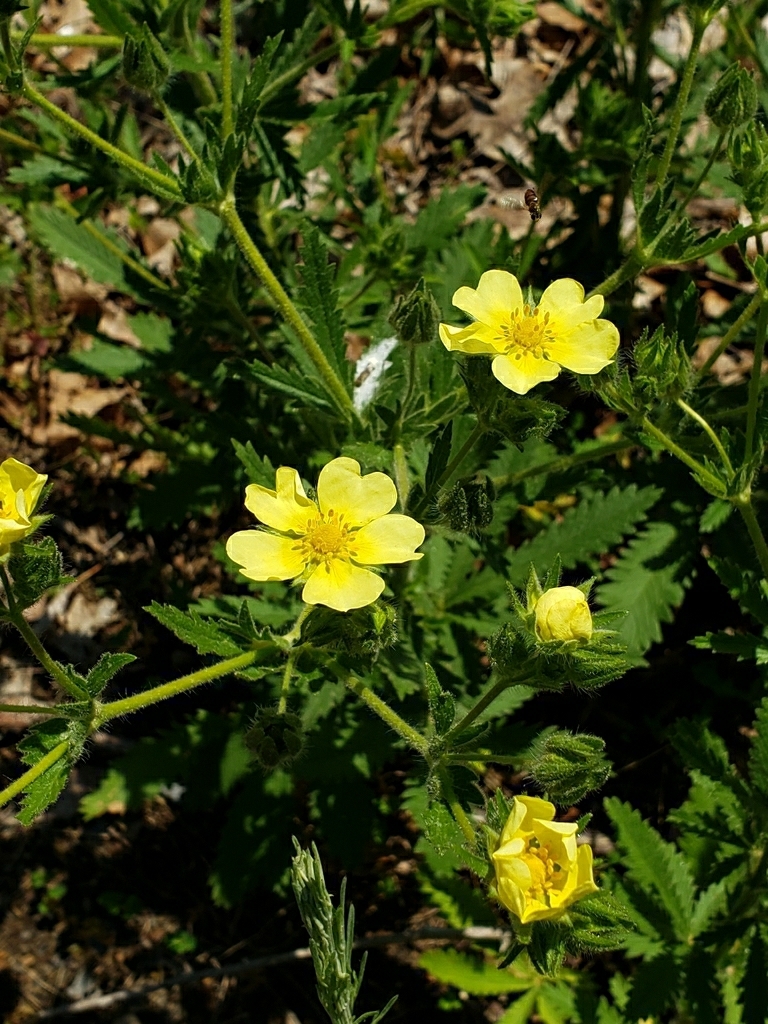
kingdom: Plantae
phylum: Tracheophyta
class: Magnoliopsida
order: Rosales
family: Rosaceae
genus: Potentilla
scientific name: Potentilla recta
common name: Sulphur cinquefoil
